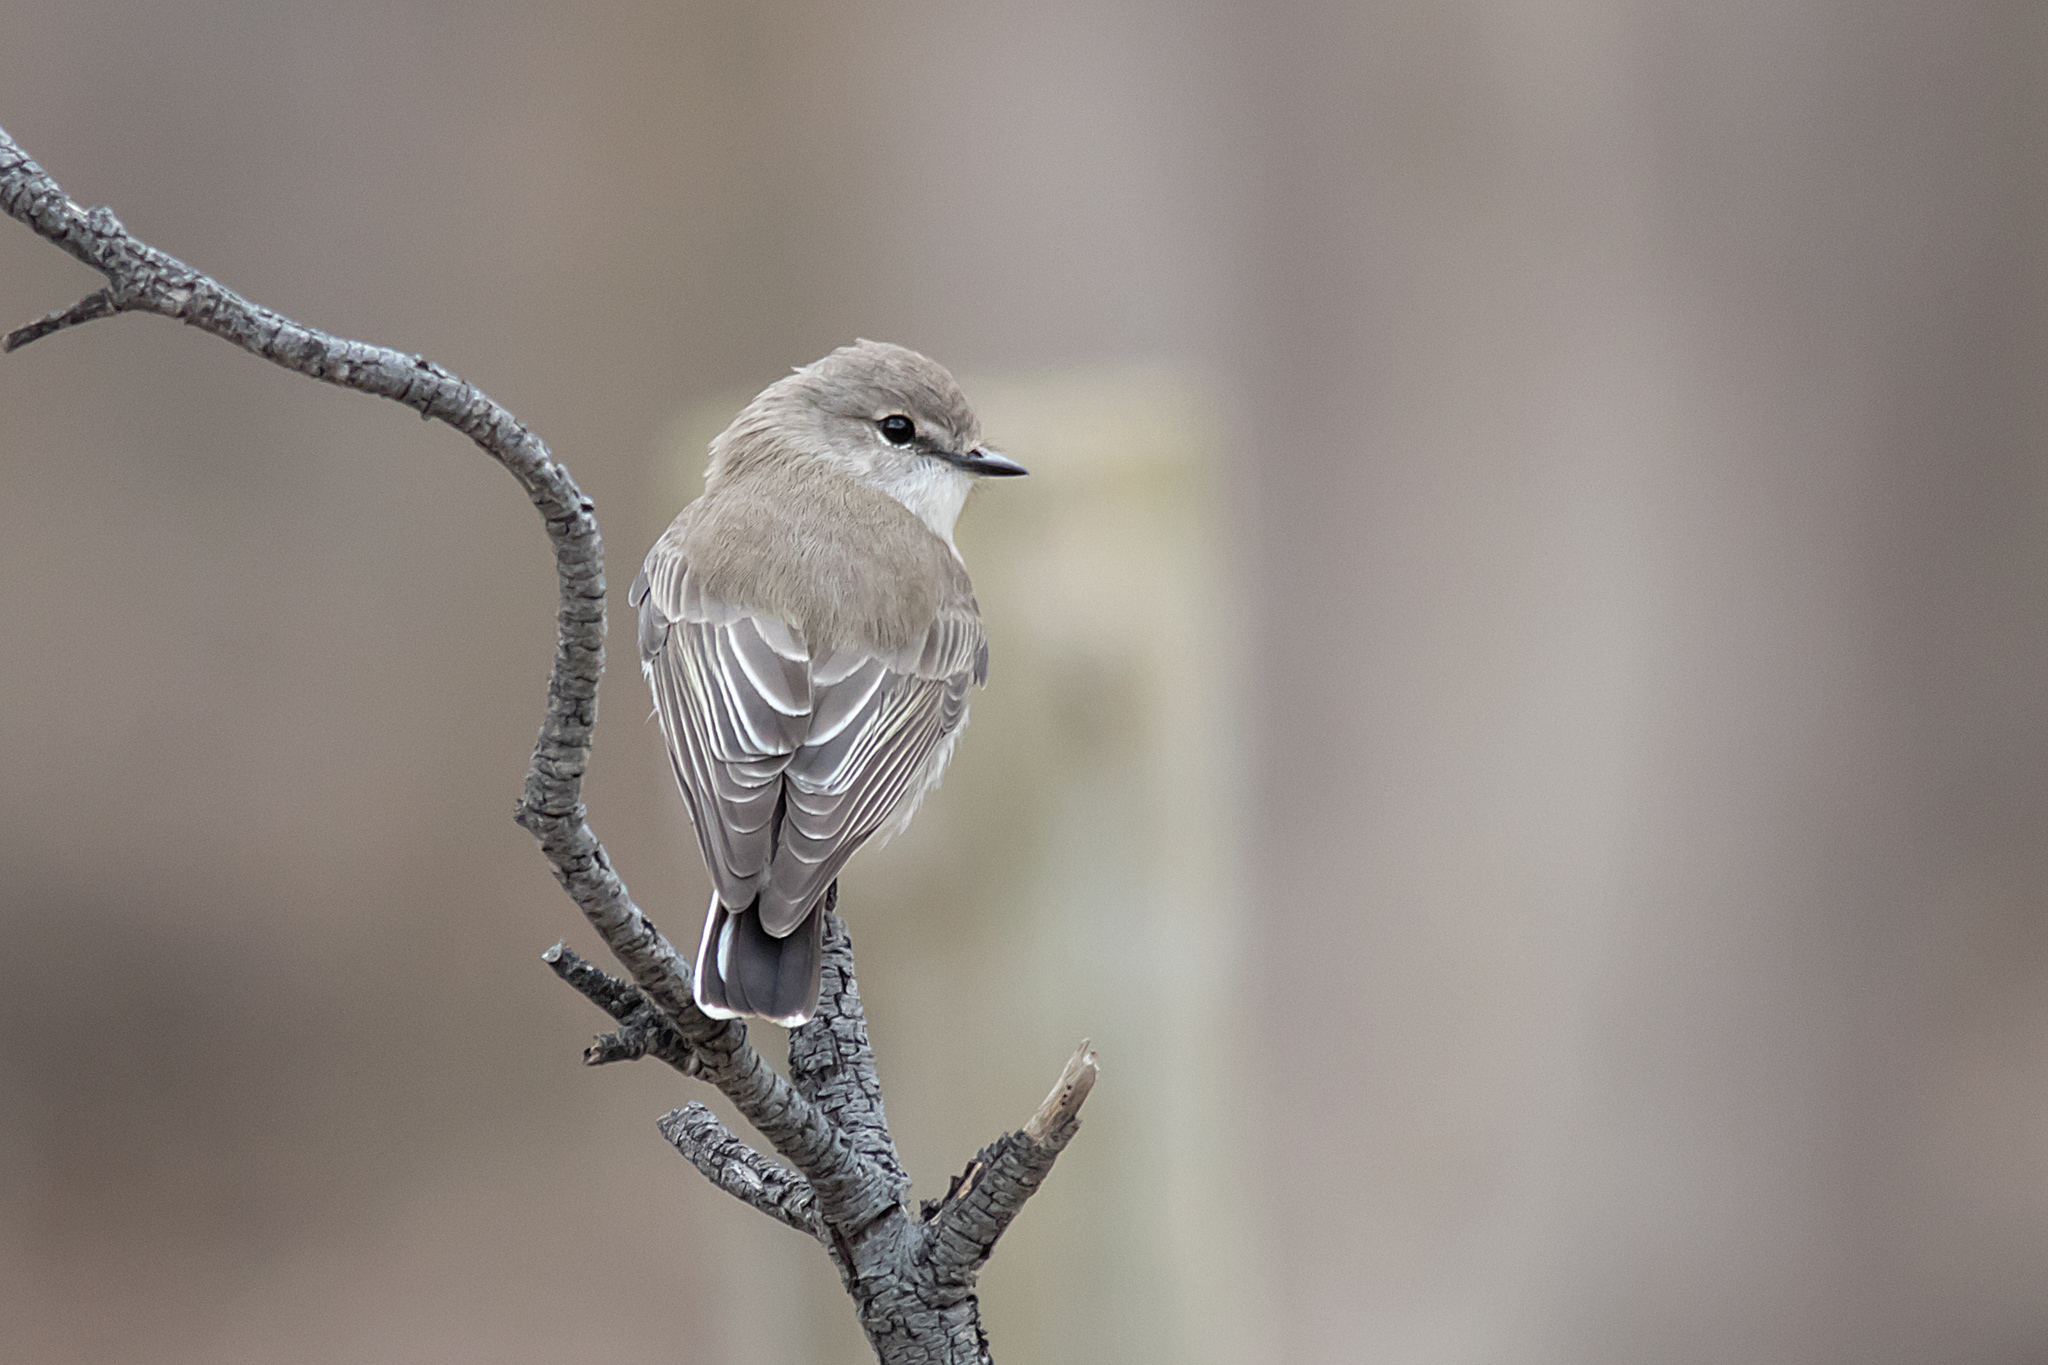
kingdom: Animalia
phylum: Chordata
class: Aves
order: Passeriformes
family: Petroicidae
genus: Microeca
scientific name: Microeca fascinans
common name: Jacky winter
